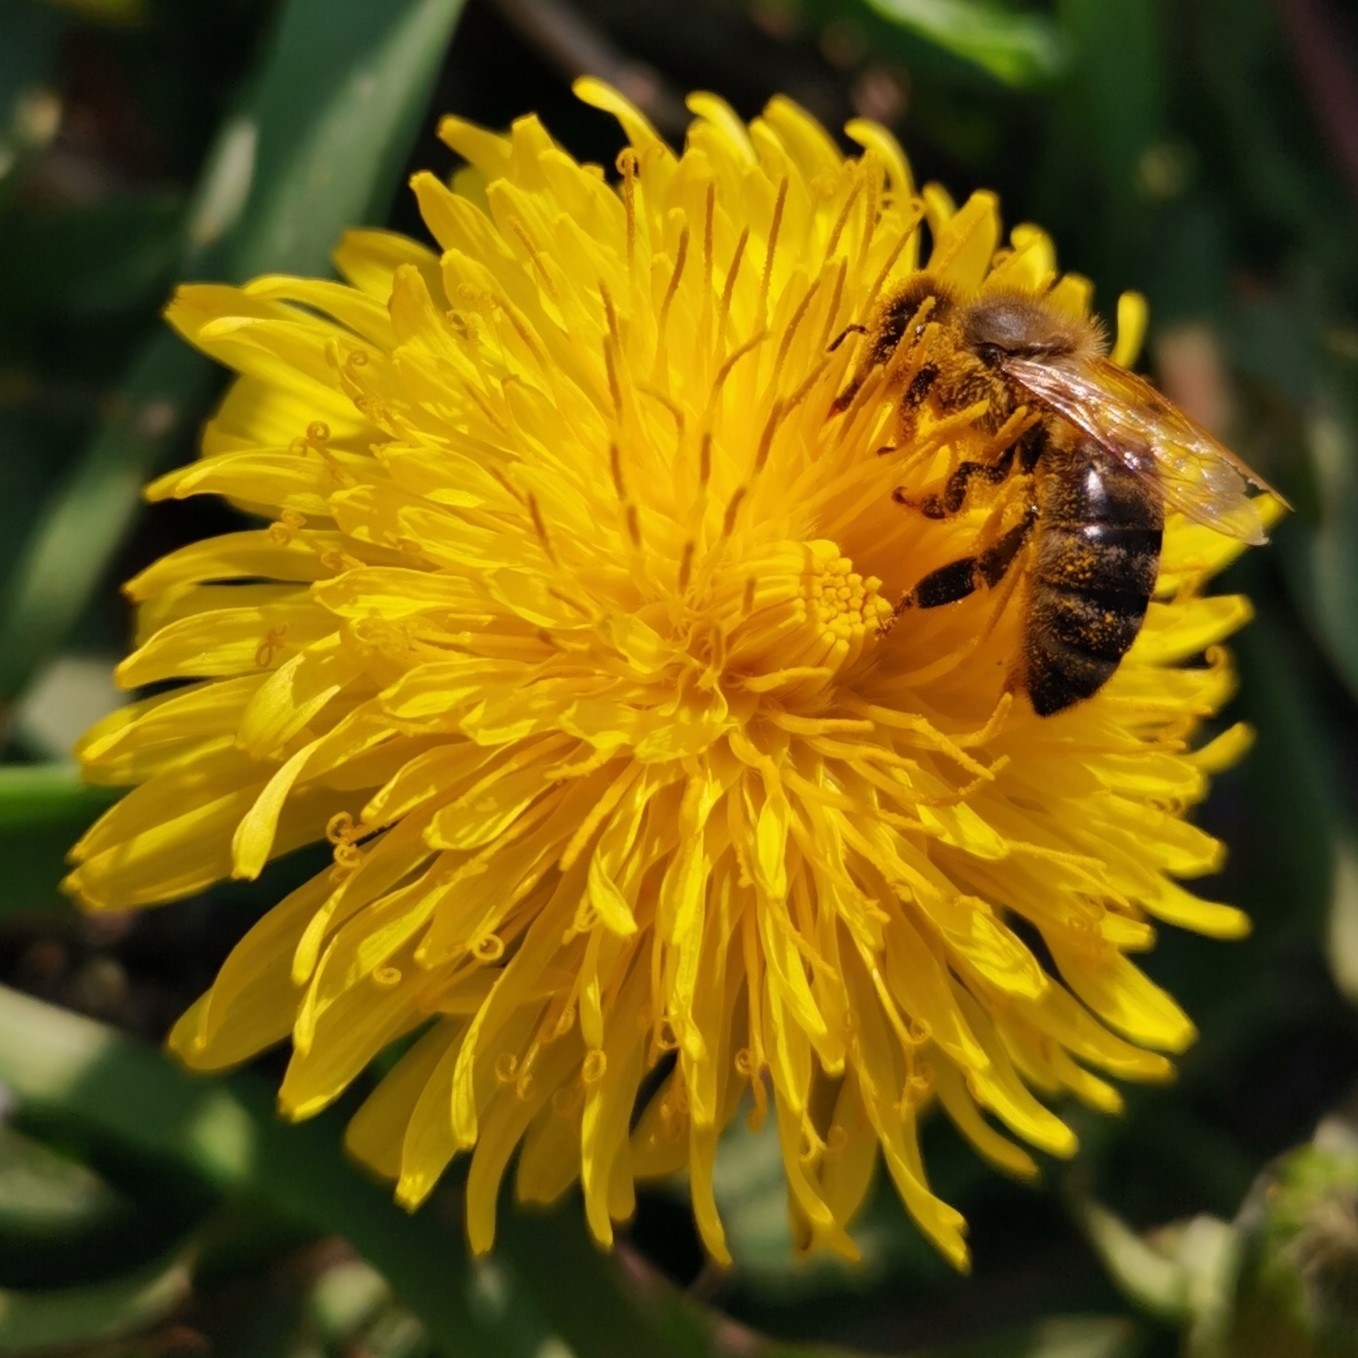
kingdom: Animalia
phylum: Arthropoda
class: Insecta
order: Hymenoptera
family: Apidae
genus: Apis
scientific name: Apis mellifera
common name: Honey bee
